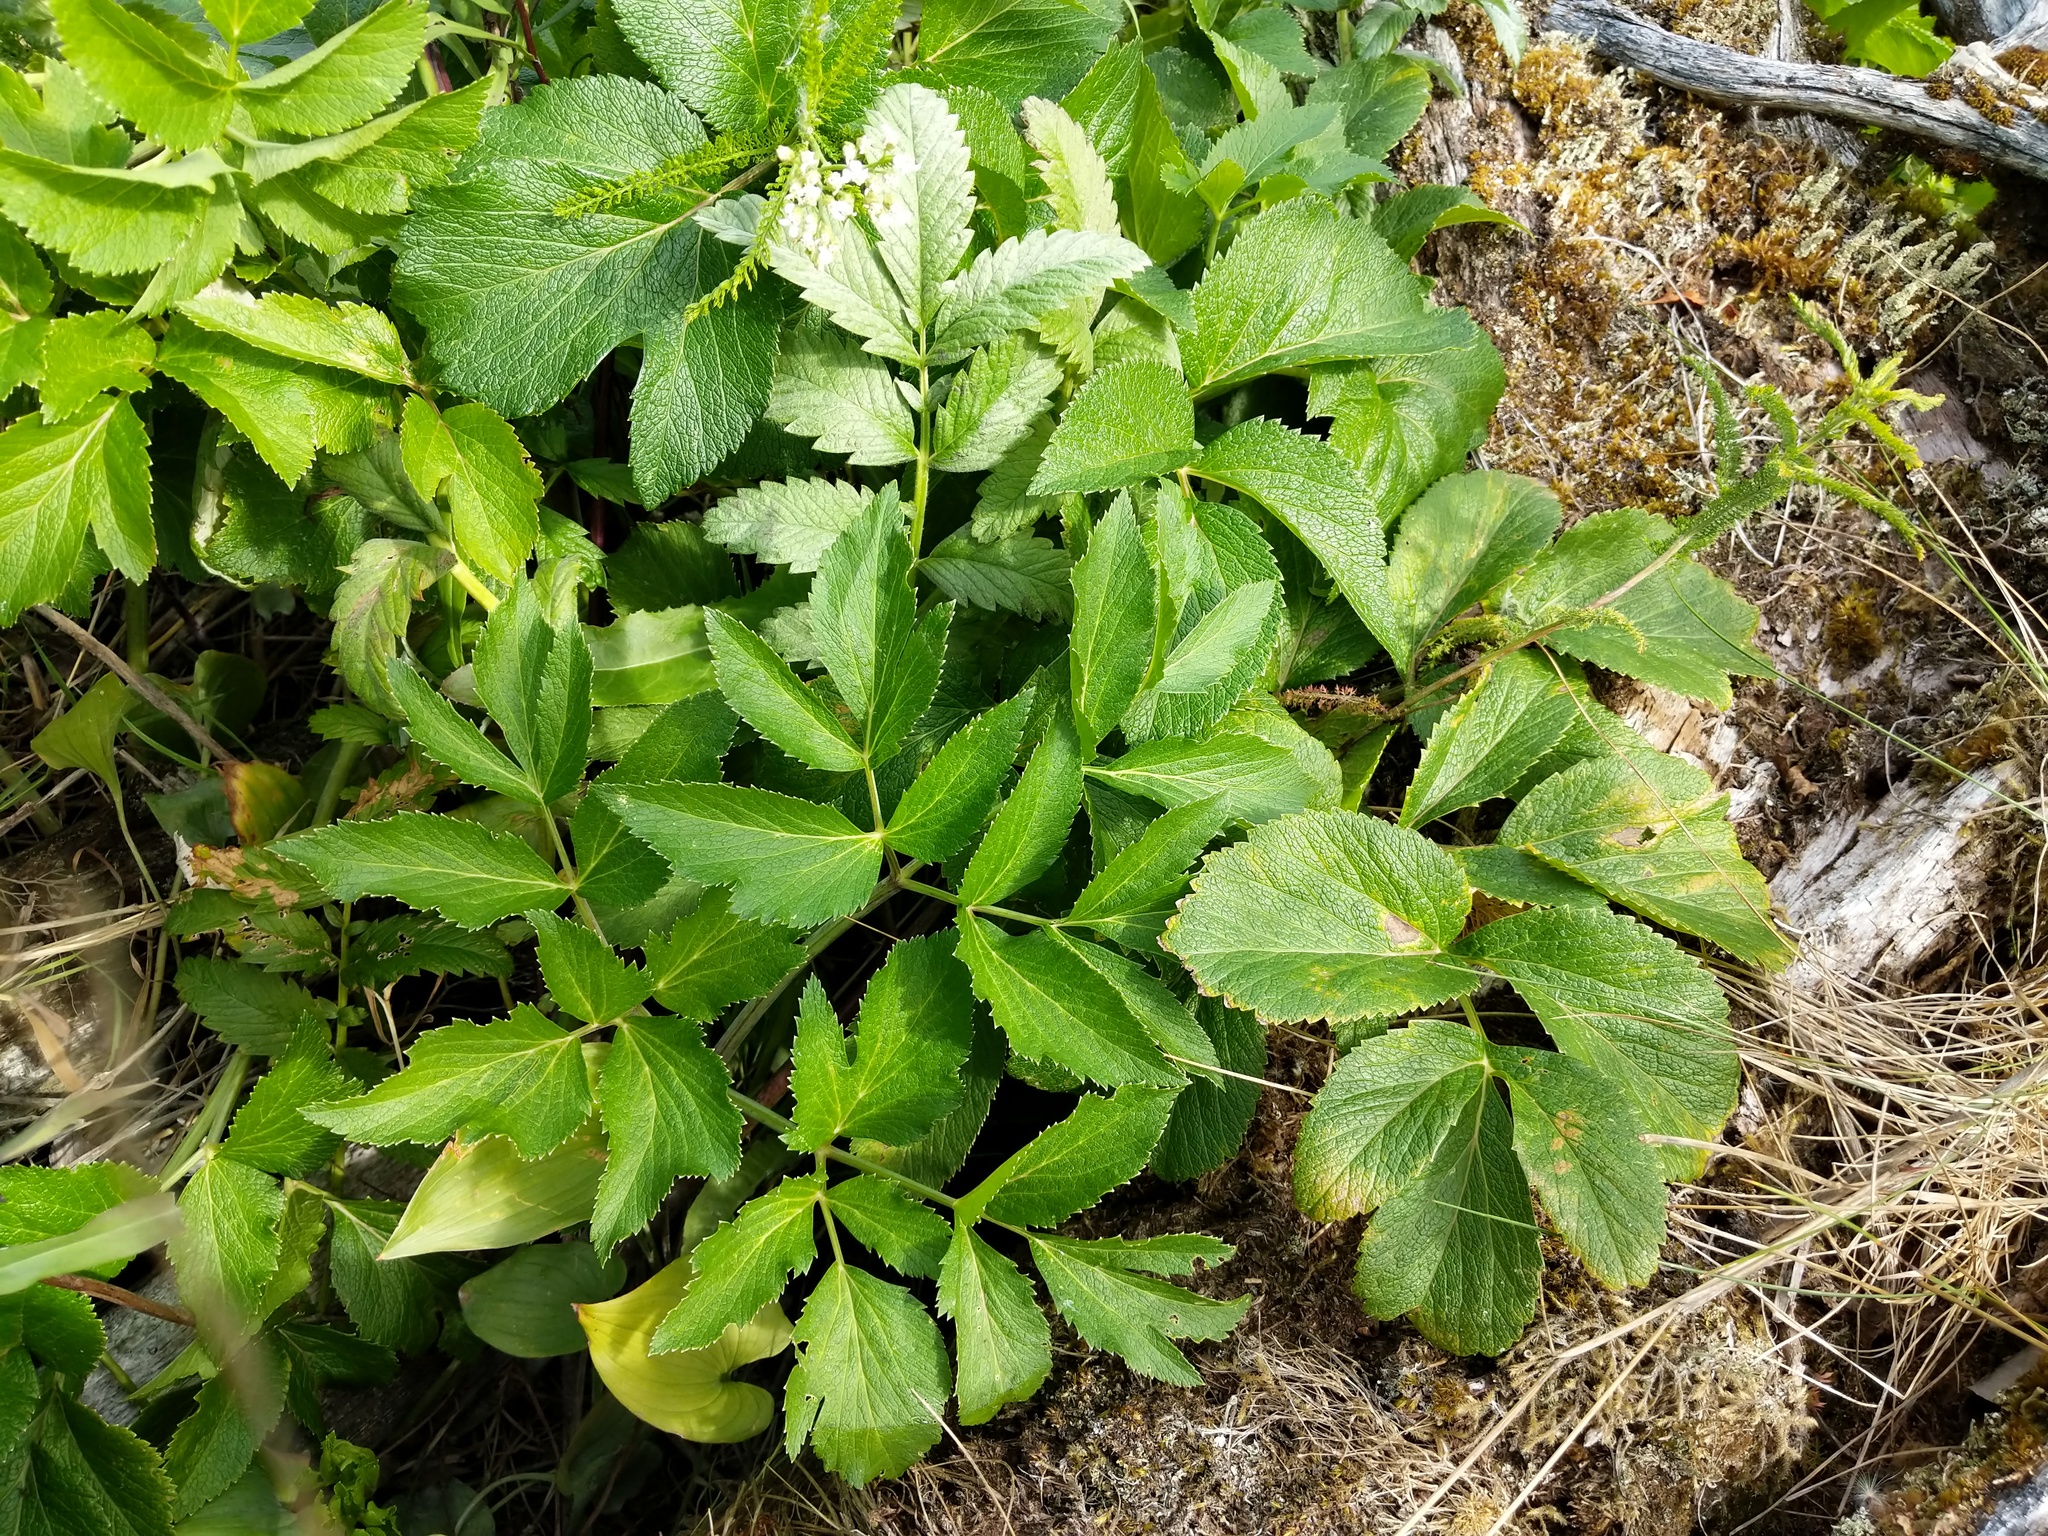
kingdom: Plantae
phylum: Tracheophyta
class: Magnoliopsida
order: Apiales
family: Apiaceae
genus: Angelica
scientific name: Angelica lucida
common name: Seabeach angelica
